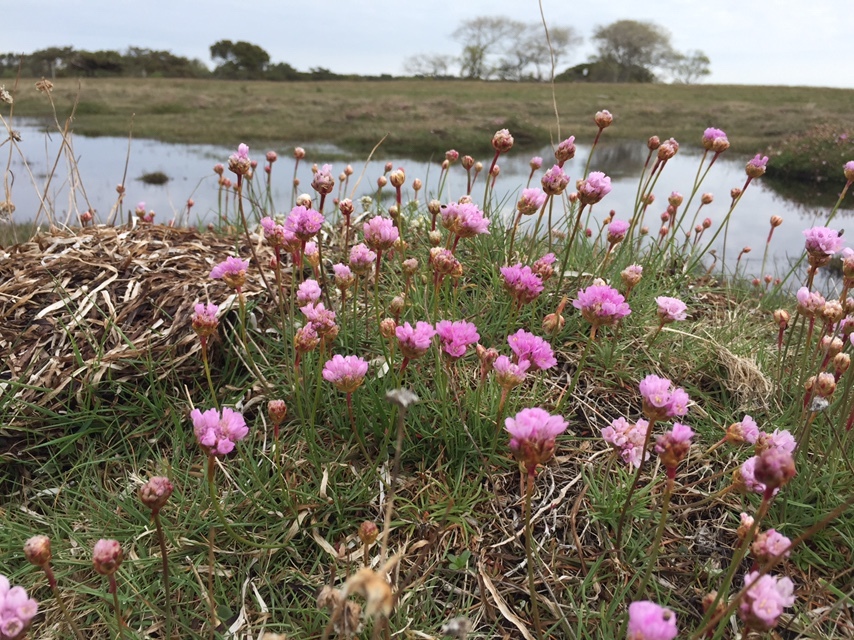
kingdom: Plantae
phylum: Tracheophyta
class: Magnoliopsida
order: Caryophyllales
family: Plumbaginaceae
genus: Armeria
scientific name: Armeria maritima
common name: Thrift
